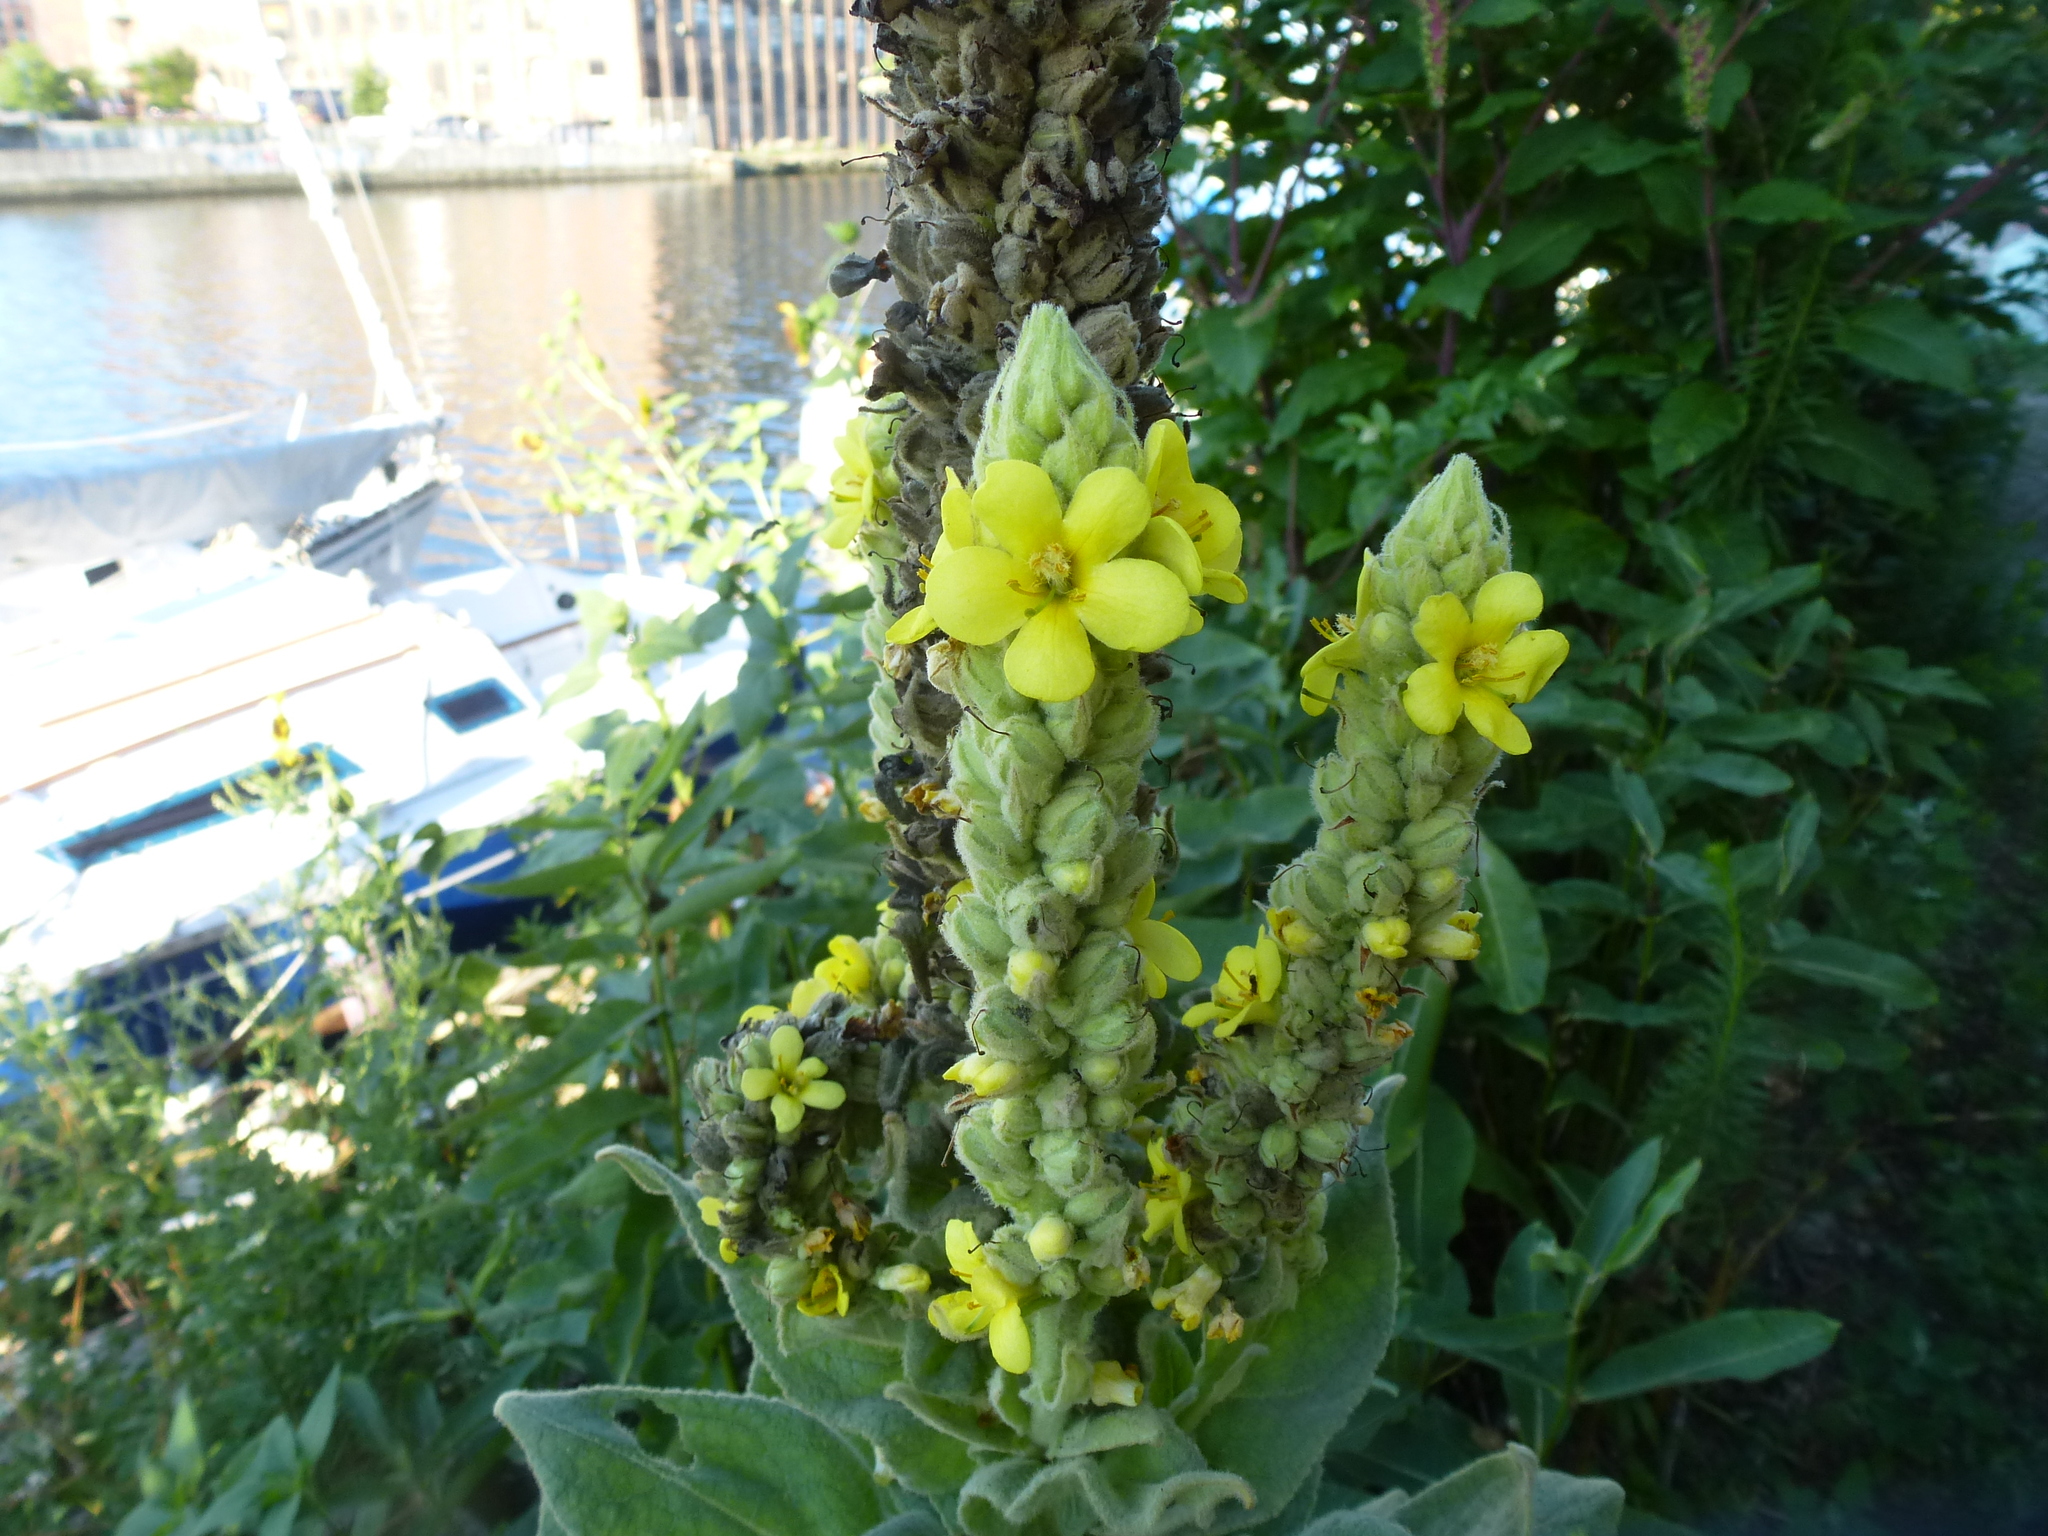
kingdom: Plantae
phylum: Tracheophyta
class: Magnoliopsida
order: Lamiales
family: Scrophulariaceae
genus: Verbascum
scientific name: Verbascum thapsus
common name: Common mullein
